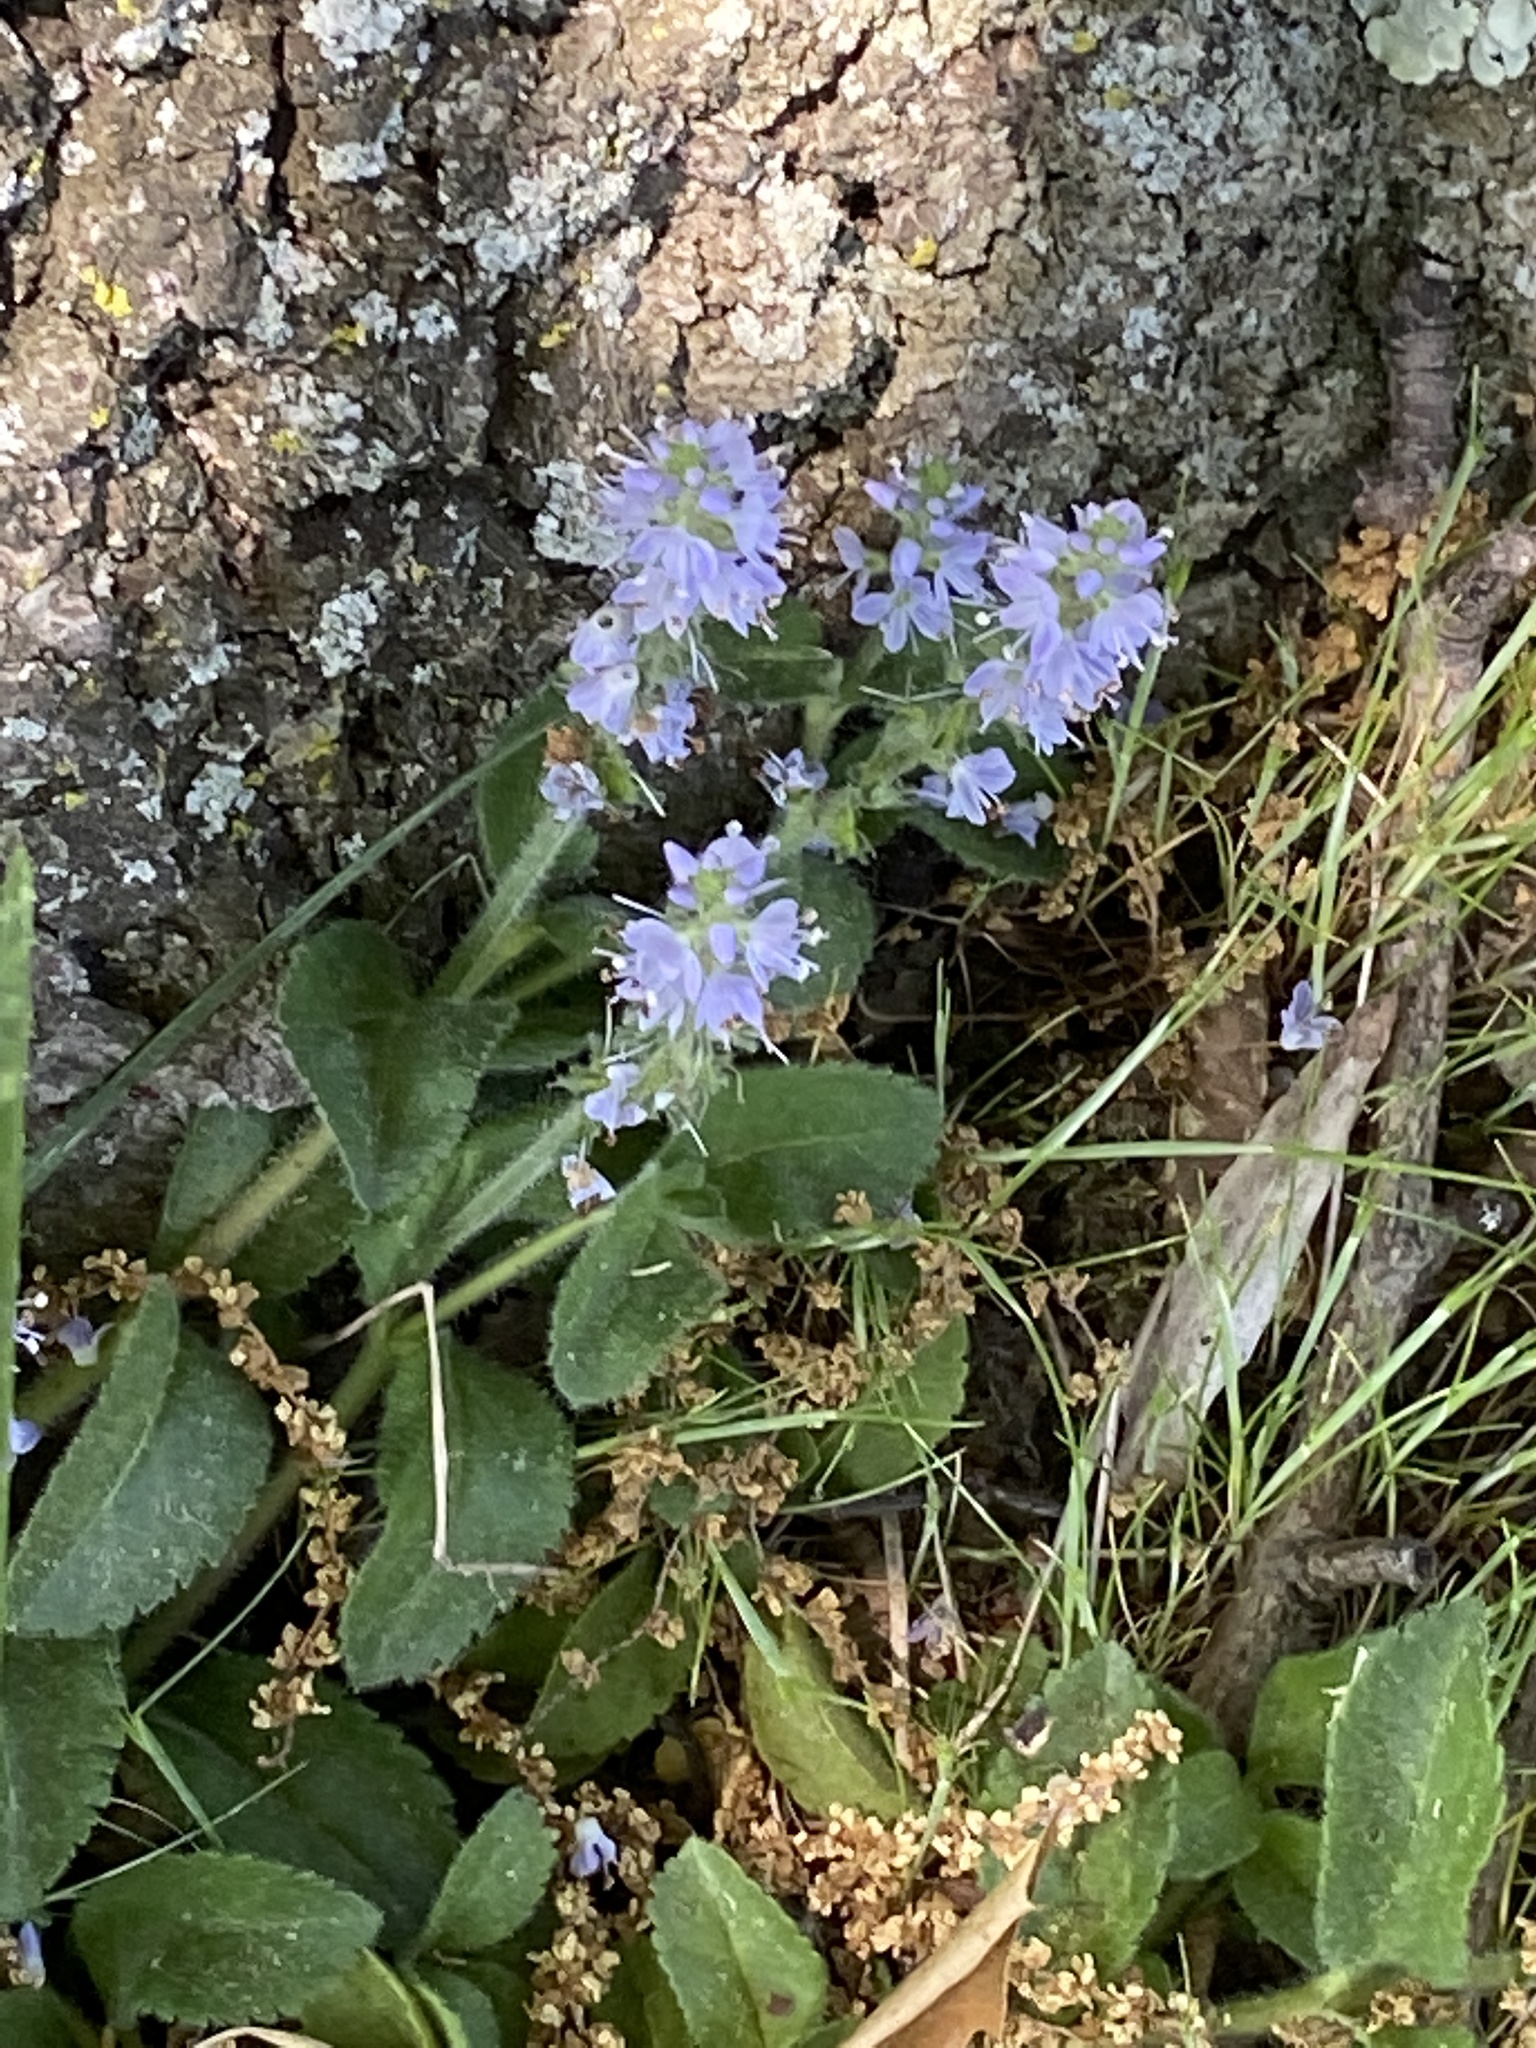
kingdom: Plantae
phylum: Tracheophyta
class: Magnoliopsida
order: Lamiales
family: Plantaginaceae
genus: Veronica
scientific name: Veronica officinalis
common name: Common speedwell
